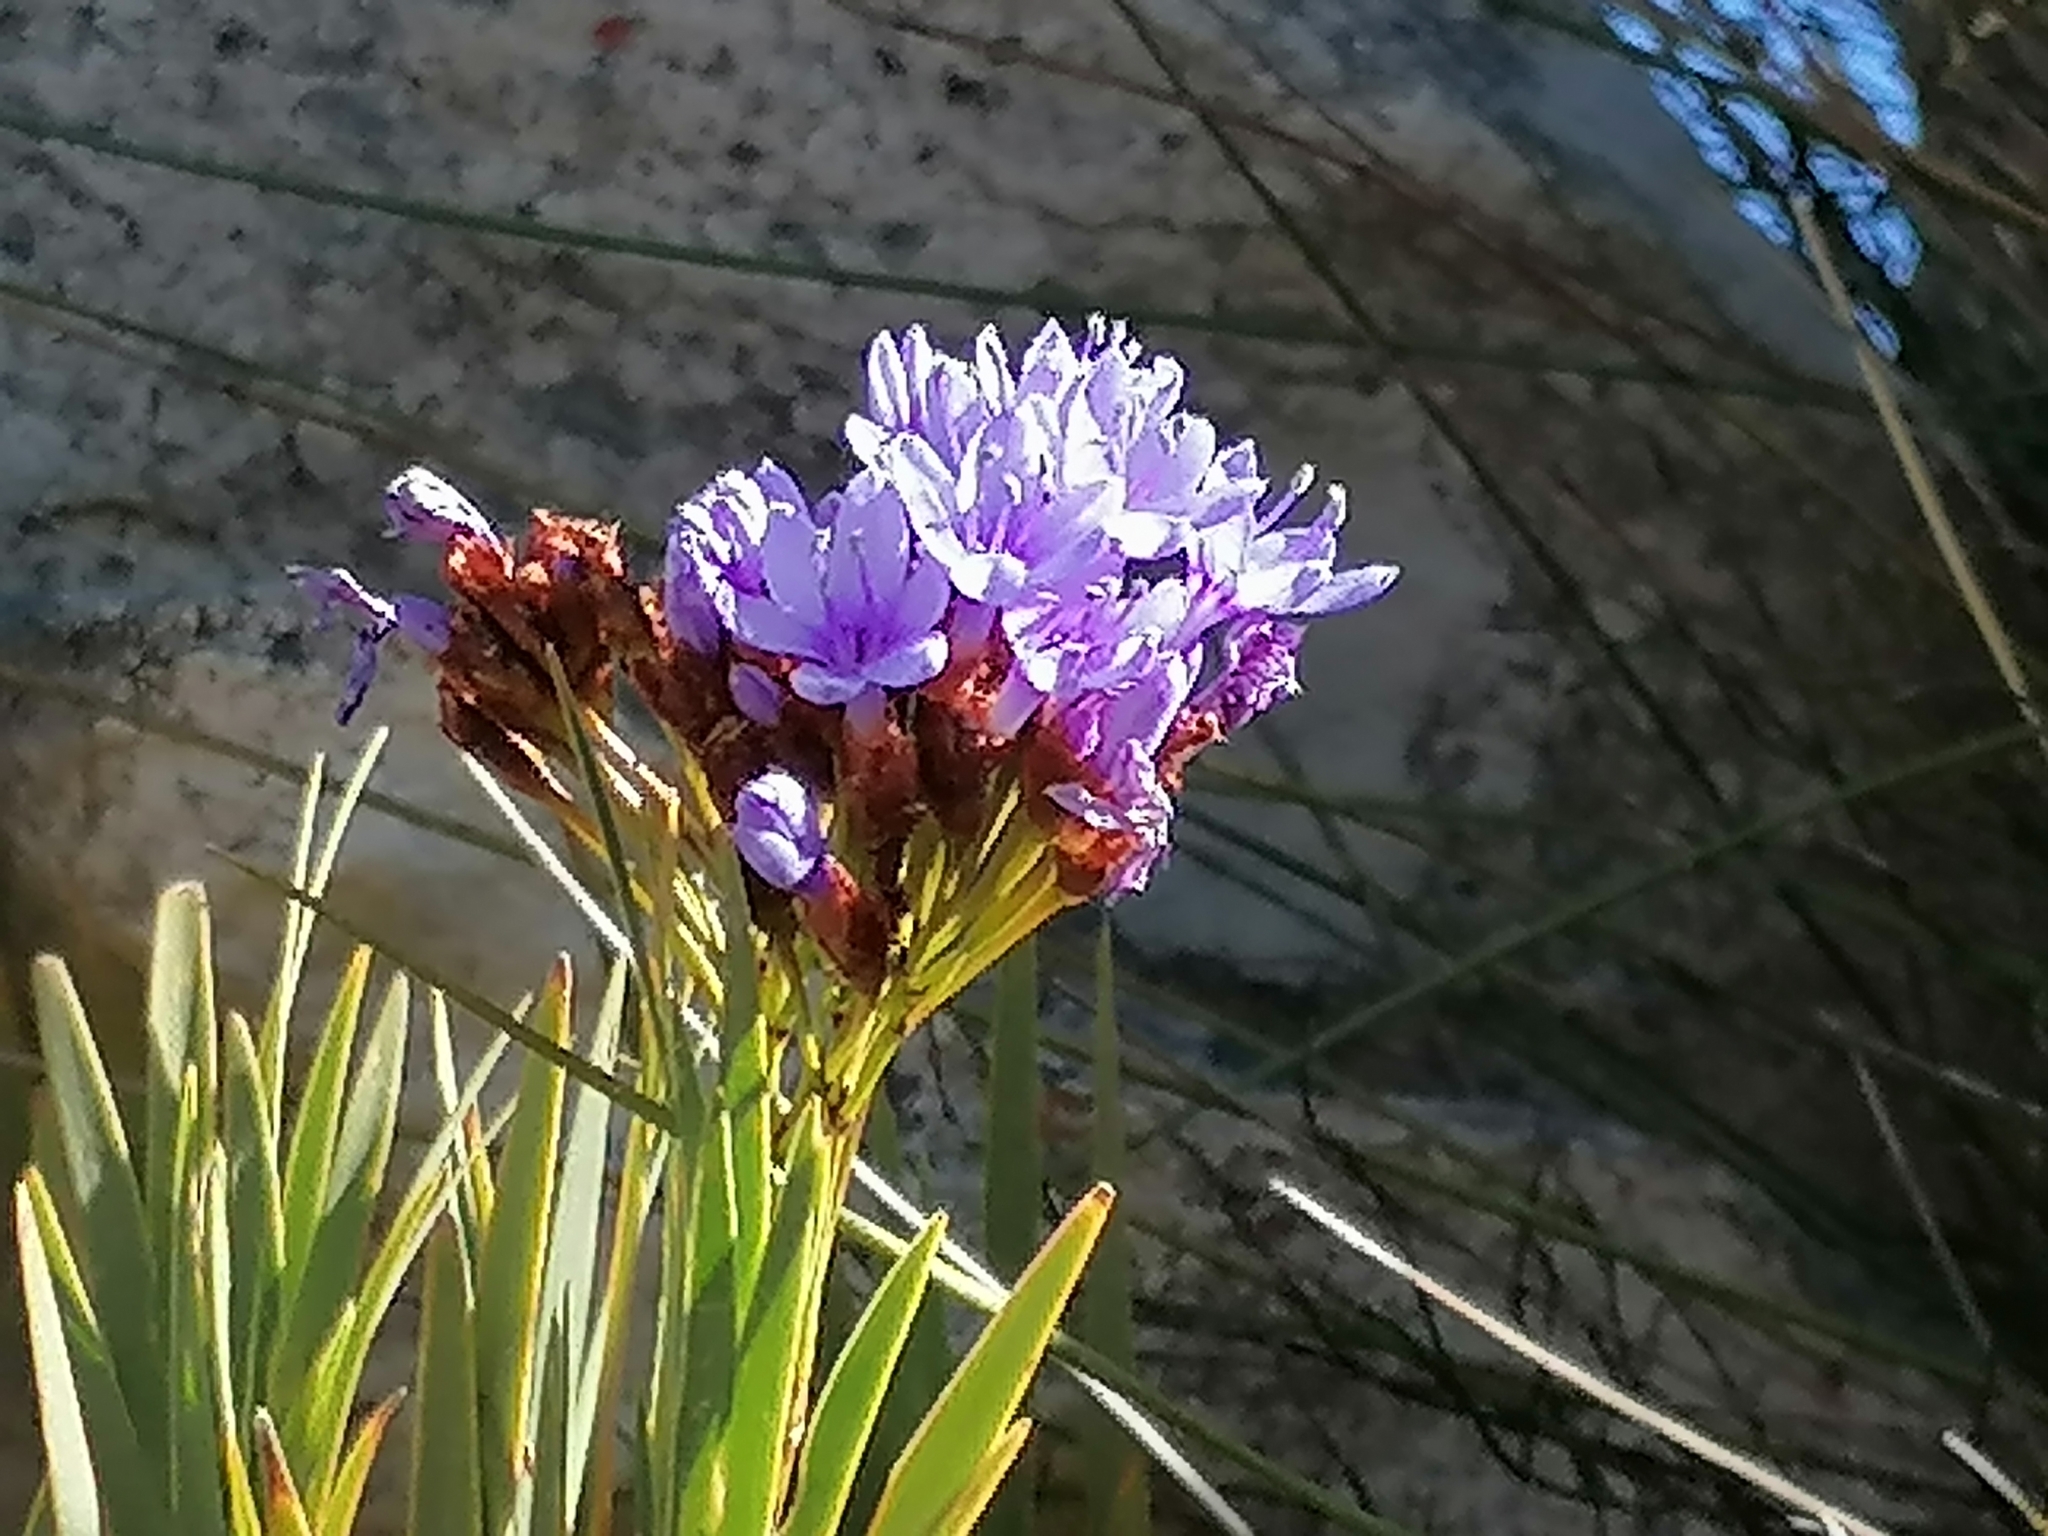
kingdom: Plantae
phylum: Tracheophyta
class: Liliopsida
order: Asparagales
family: Iridaceae
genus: Nivenia
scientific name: Nivenia binata
